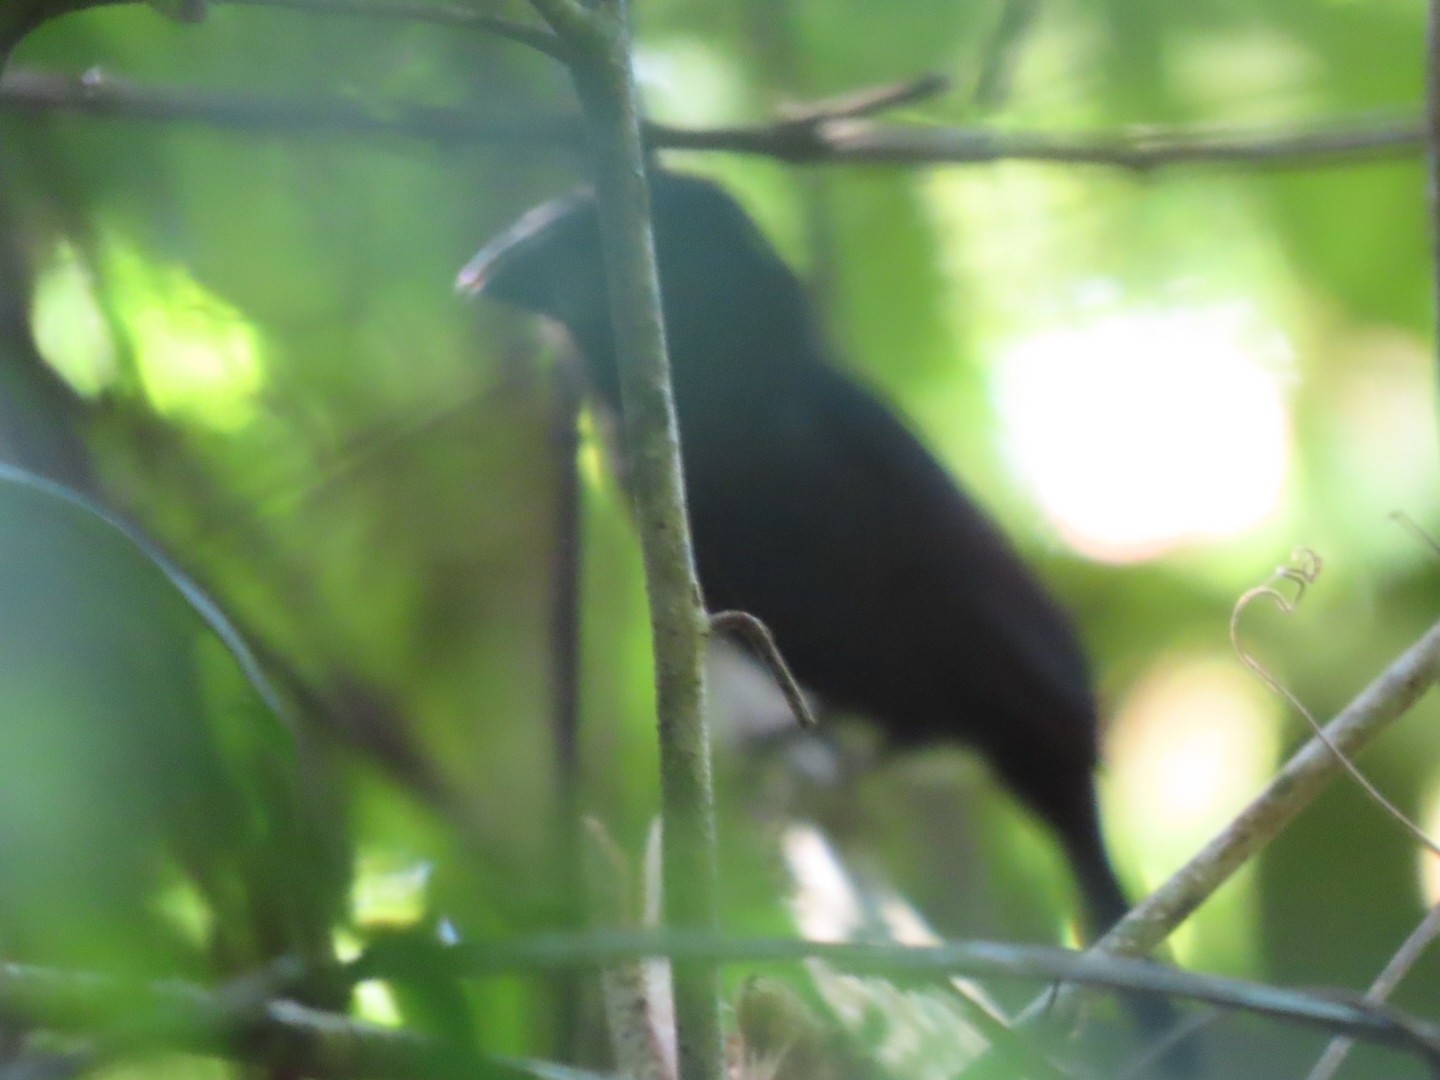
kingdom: Animalia
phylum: Chordata
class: Aves
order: Passeriformes
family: Cardinalidae
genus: Cyanocompsa
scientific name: Cyanocompsa cyanoides
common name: Blue-black grosbeak
